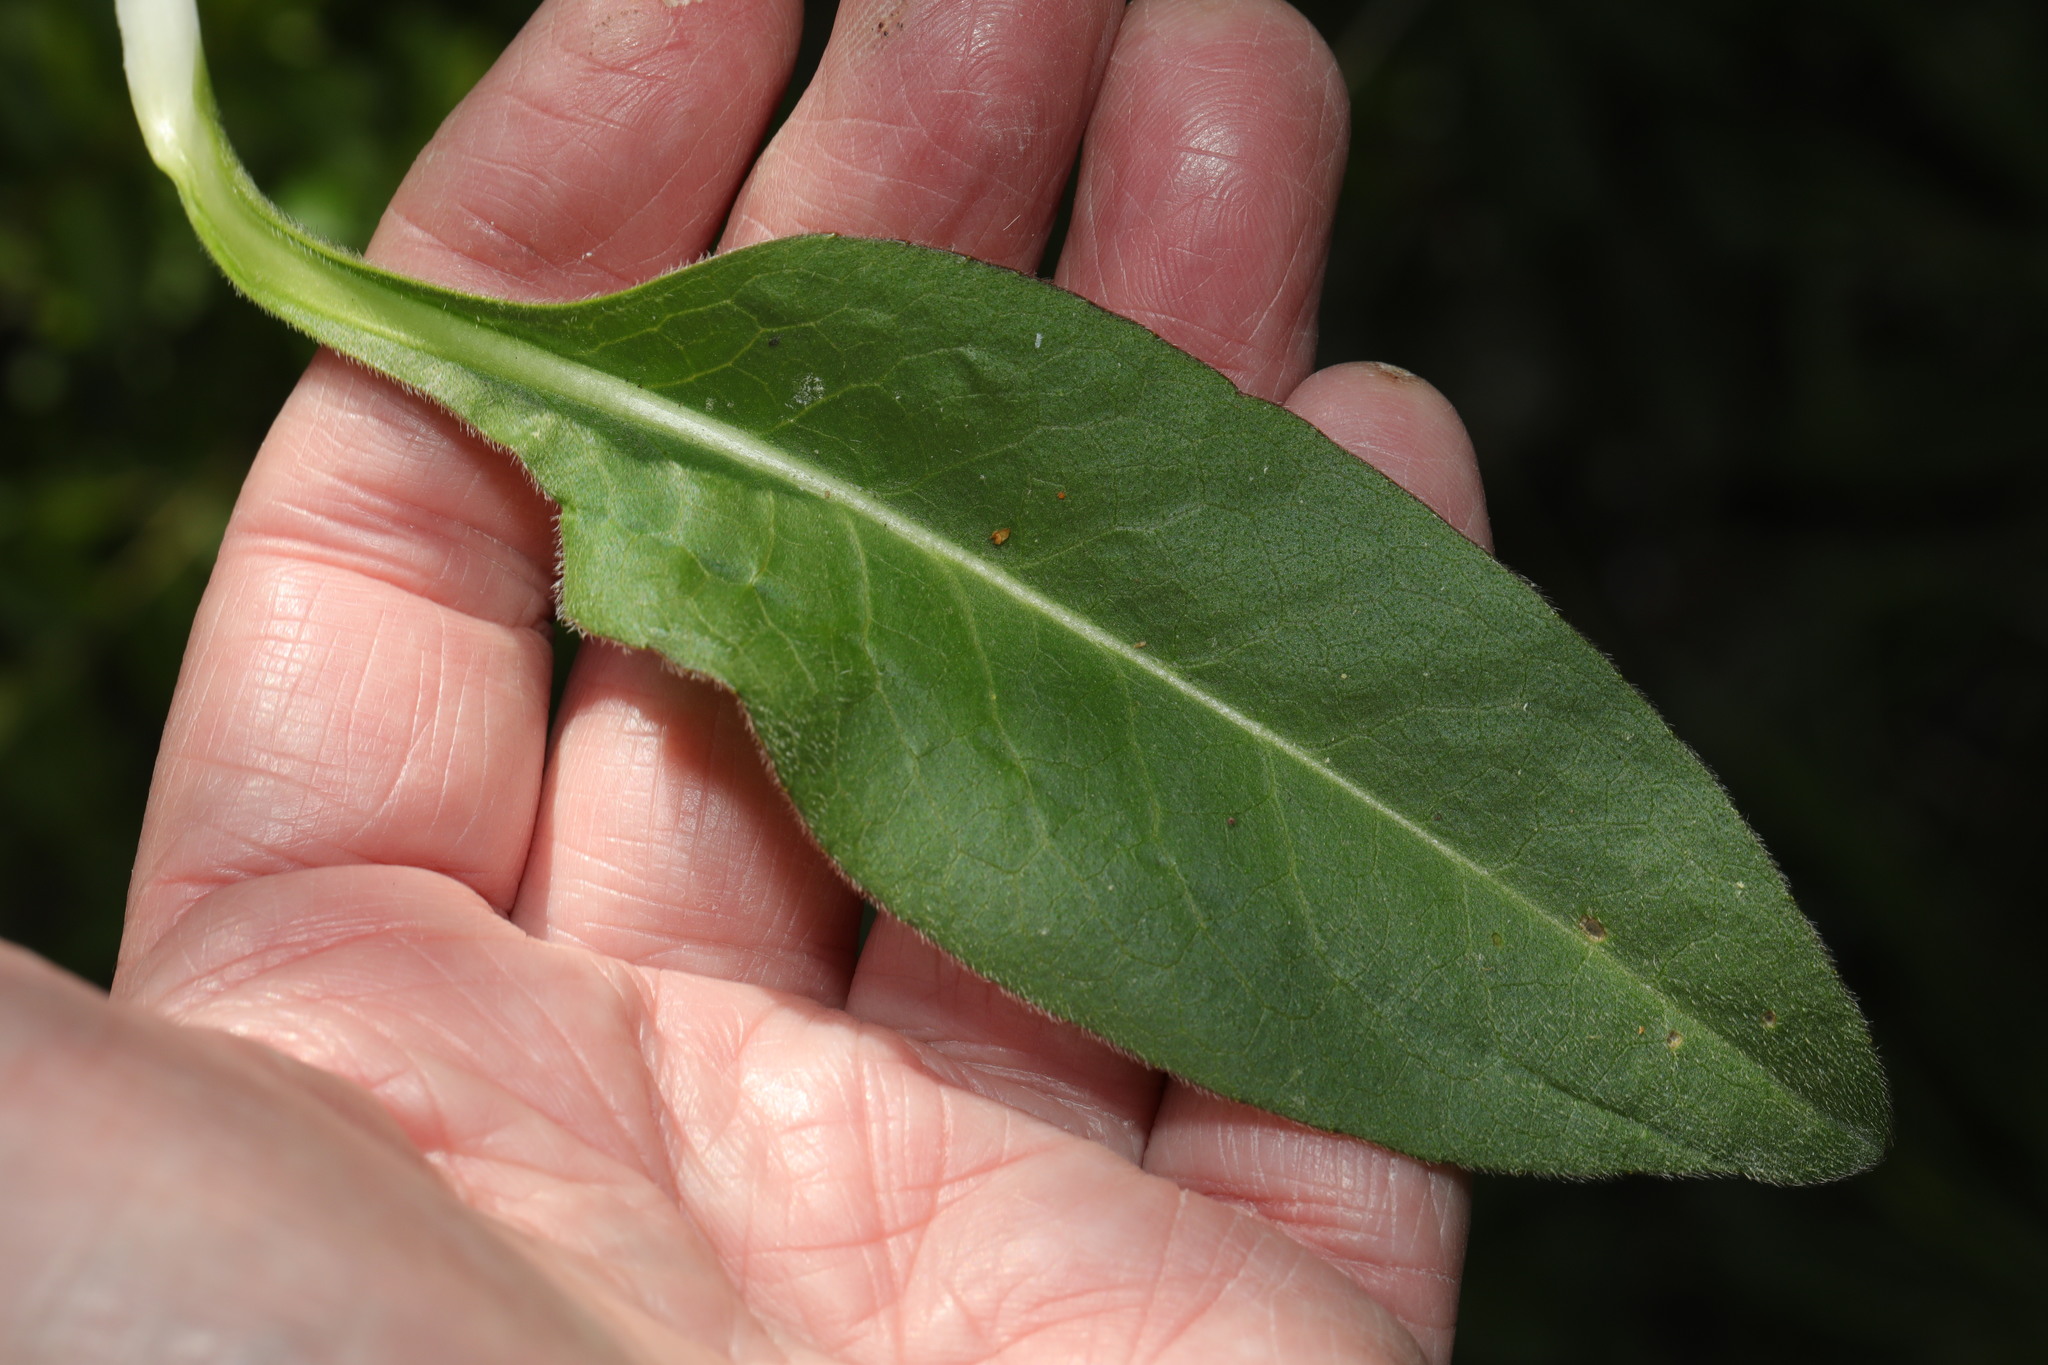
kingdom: Plantae
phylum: Tracheophyta
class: Magnoliopsida
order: Dipsacales
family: Caprifoliaceae
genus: Succisa
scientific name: Succisa pratensis
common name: Devil's-bit
